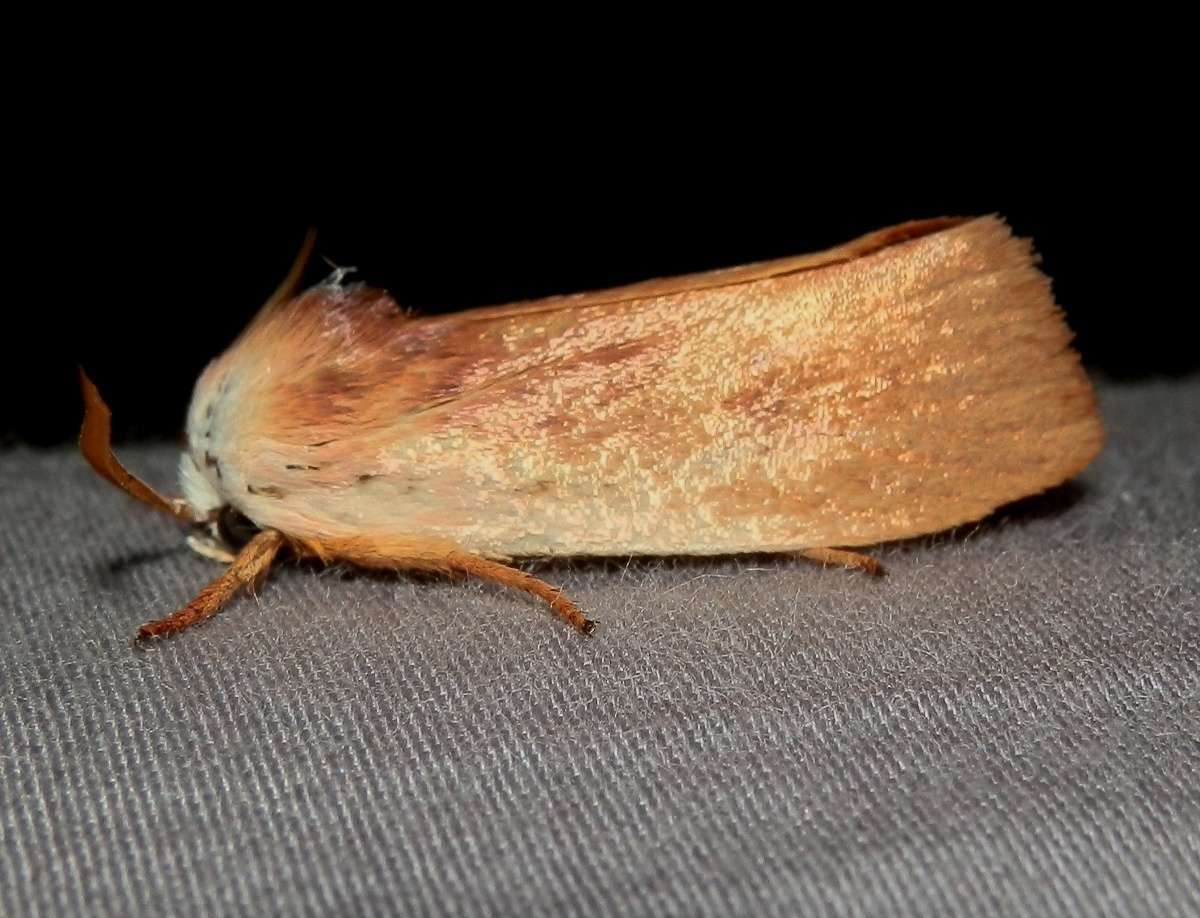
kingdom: Animalia
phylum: Arthropoda
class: Insecta
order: Lepidoptera
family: Xyloryctidae
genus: Cryptophasa
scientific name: Cryptophasa rubescens
